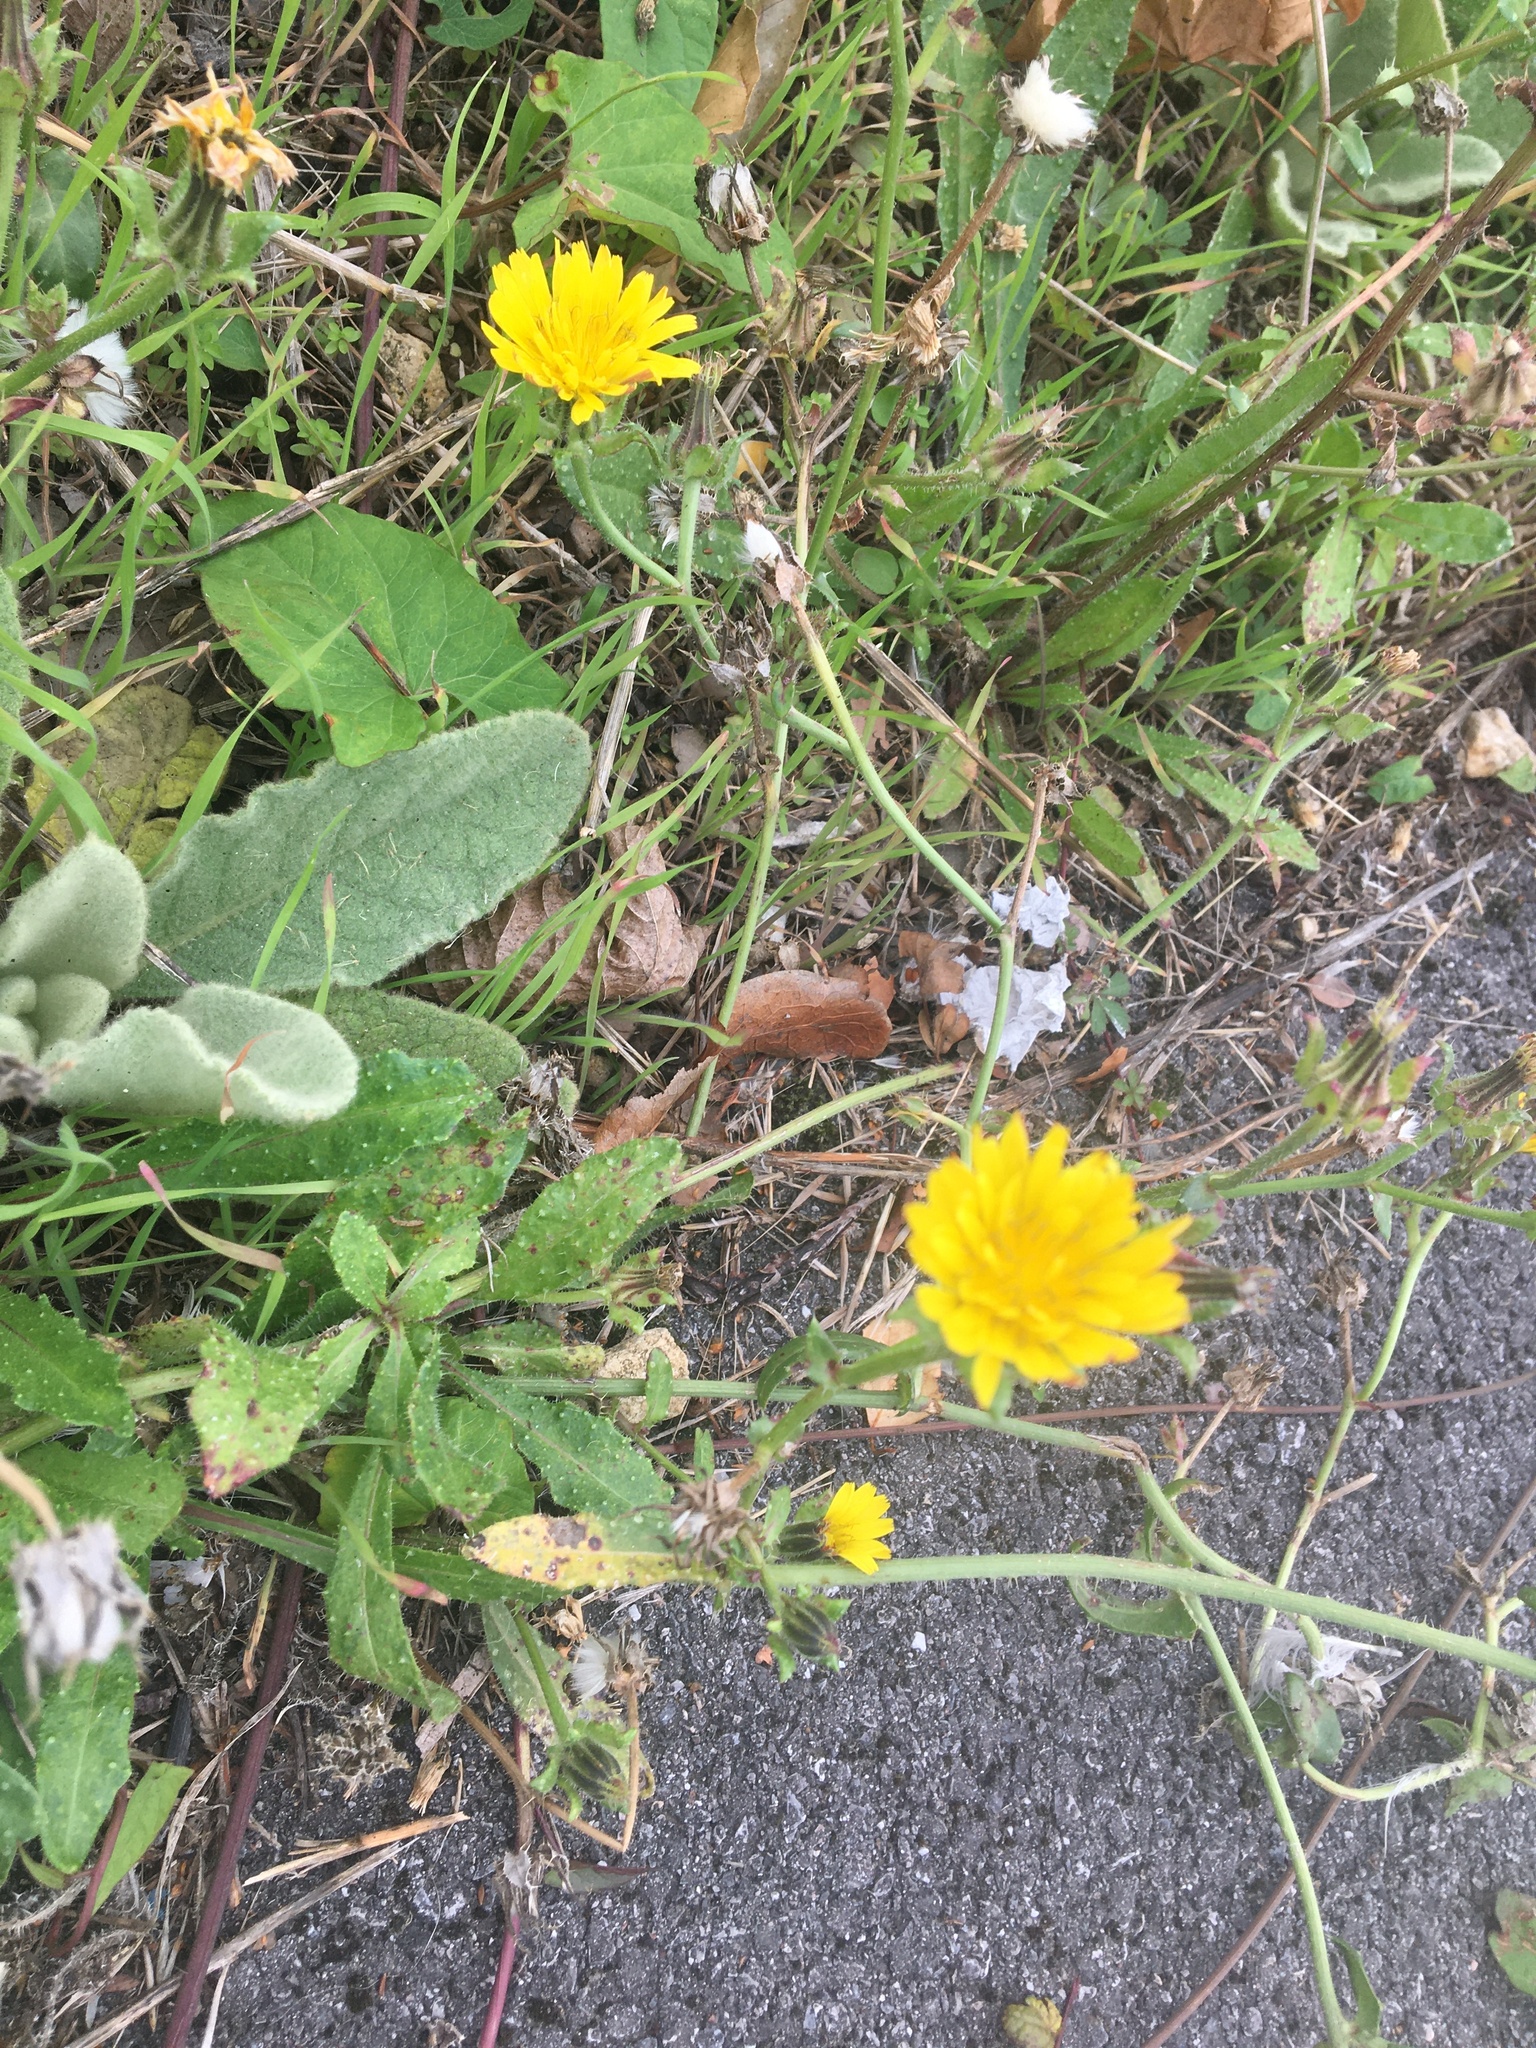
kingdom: Plantae
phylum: Tracheophyta
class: Magnoliopsida
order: Asterales
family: Asteraceae
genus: Hypochaeris
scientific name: Hypochaeris radicata
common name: Flatweed
